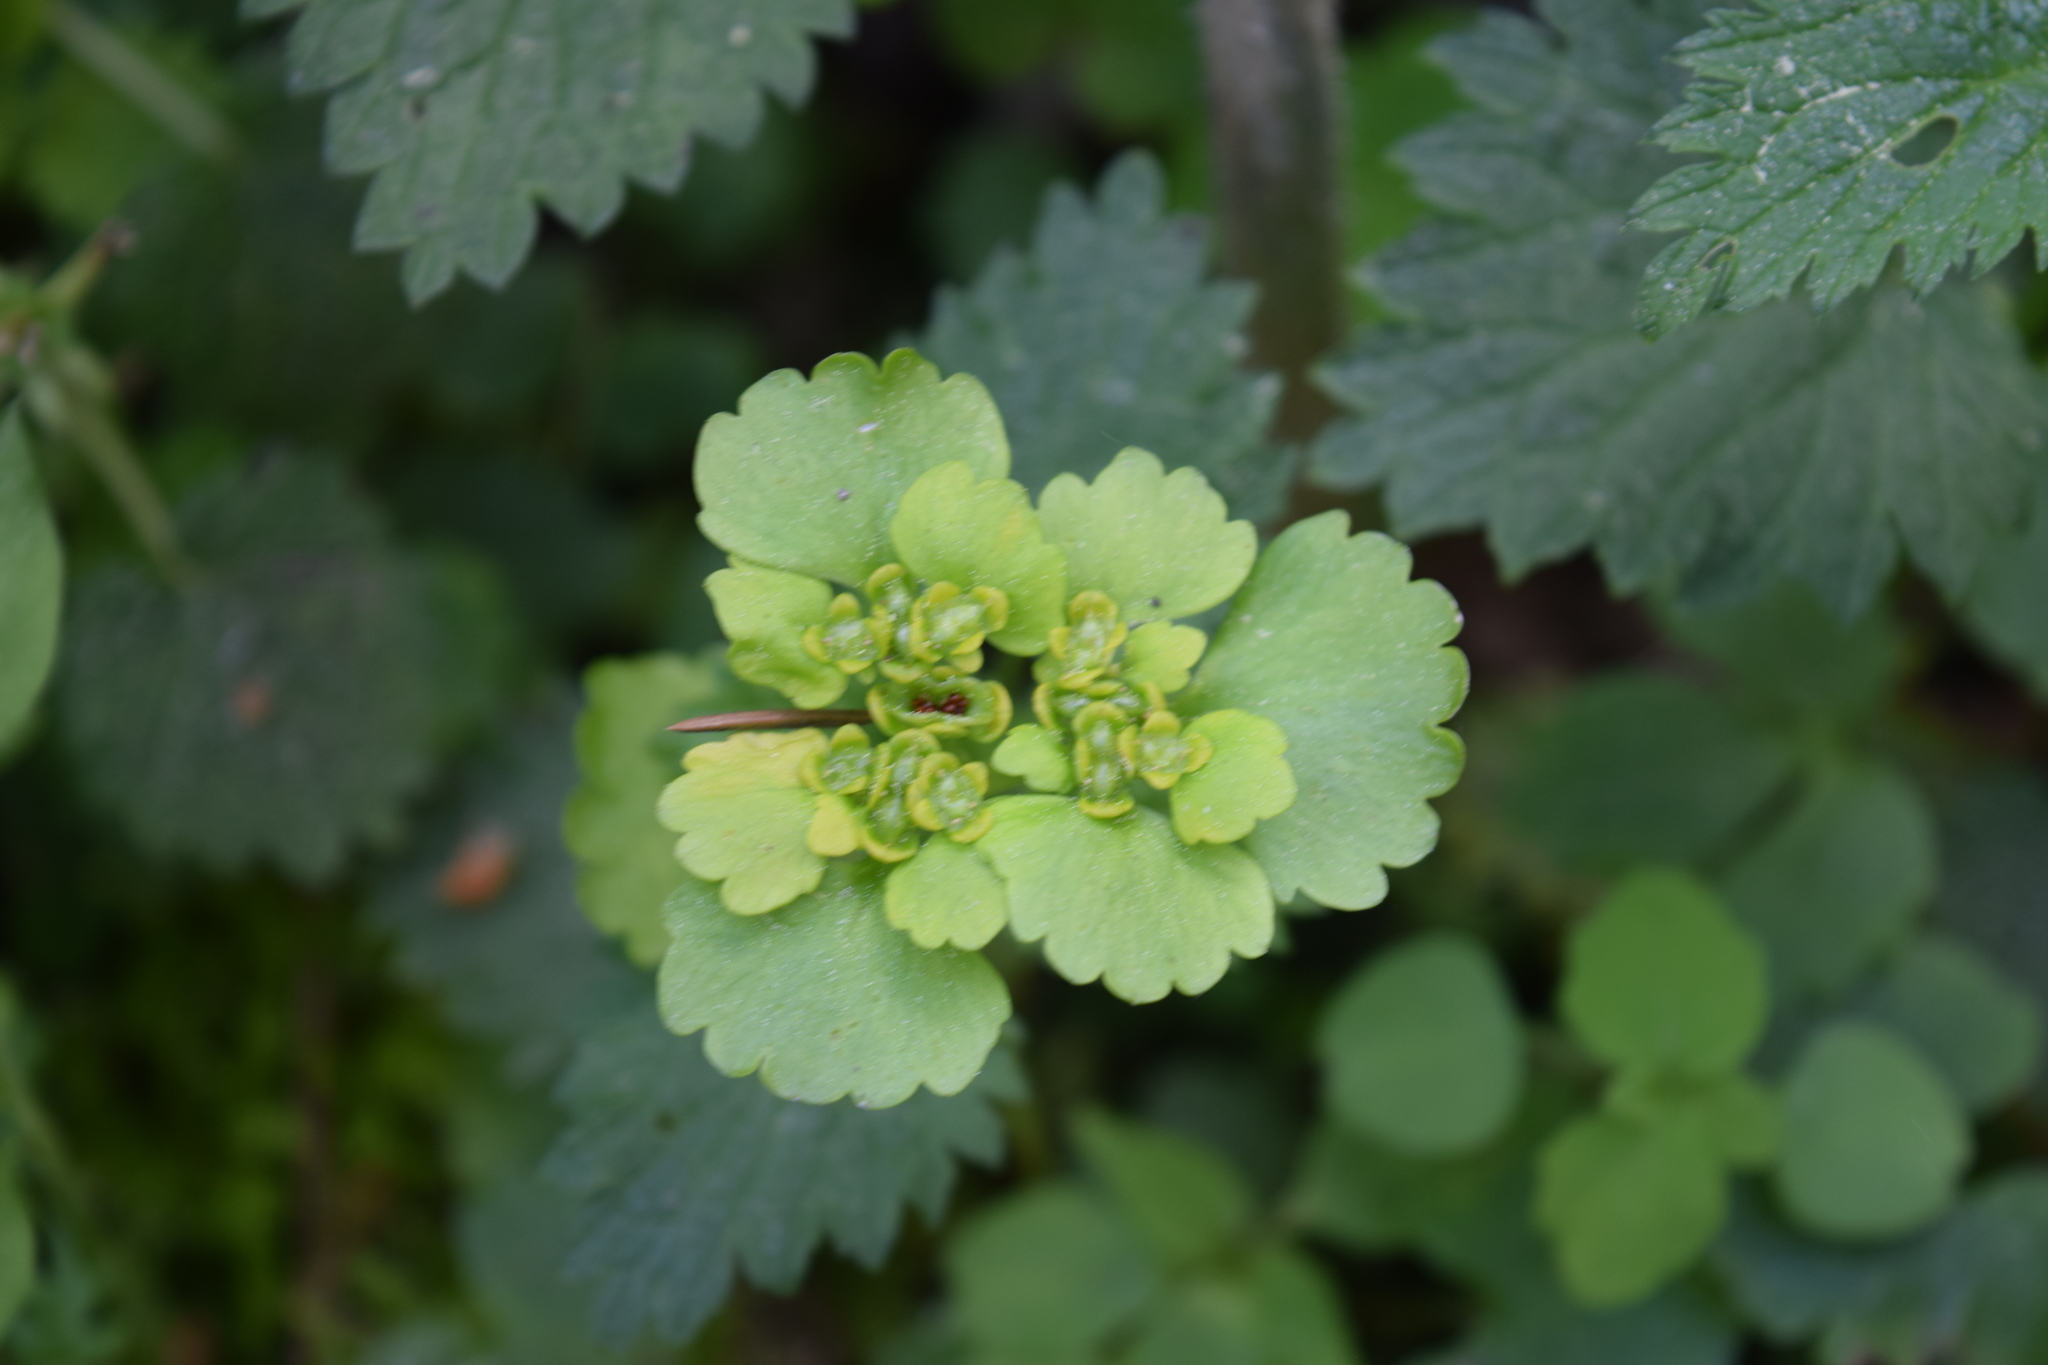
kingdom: Plantae
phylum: Tracheophyta
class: Magnoliopsida
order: Saxifragales
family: Saxifragaceae
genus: Chrysosplenium
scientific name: Chrysosplenium alternifolium
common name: Alternate-leaved golden-saxifrage
